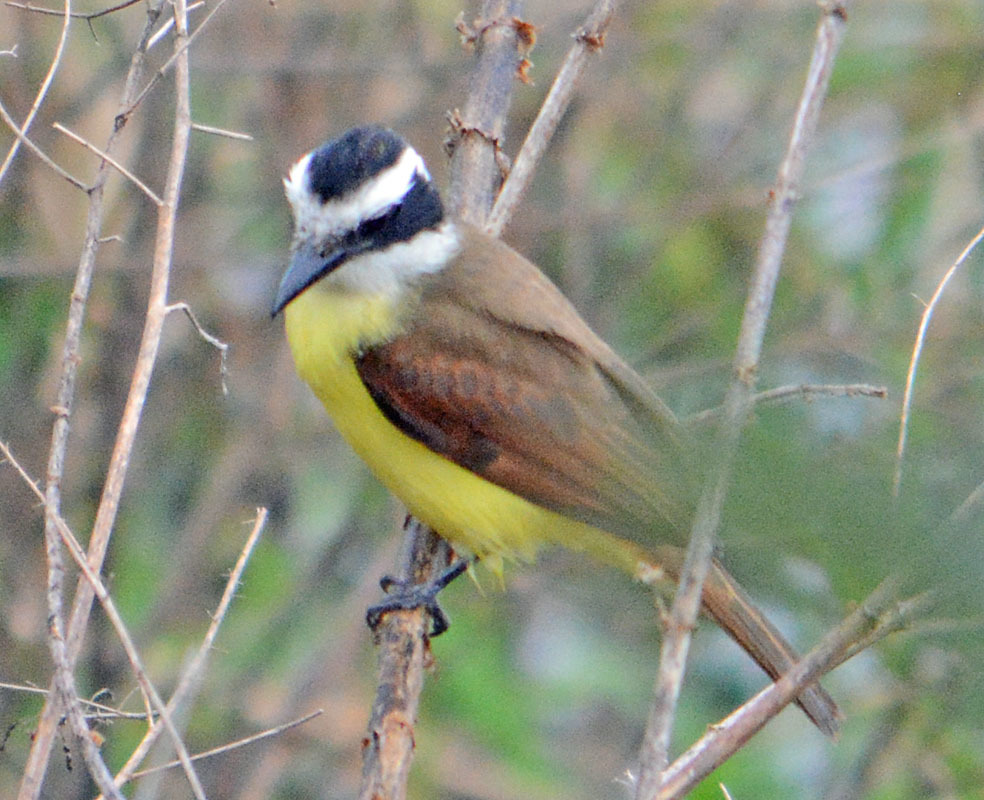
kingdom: Animalia
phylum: Chordata
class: Aves
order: Passeriformes
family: Tyrannidae
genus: Pitangus
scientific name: Pitangus sulphuratus
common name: Great kiskadee
